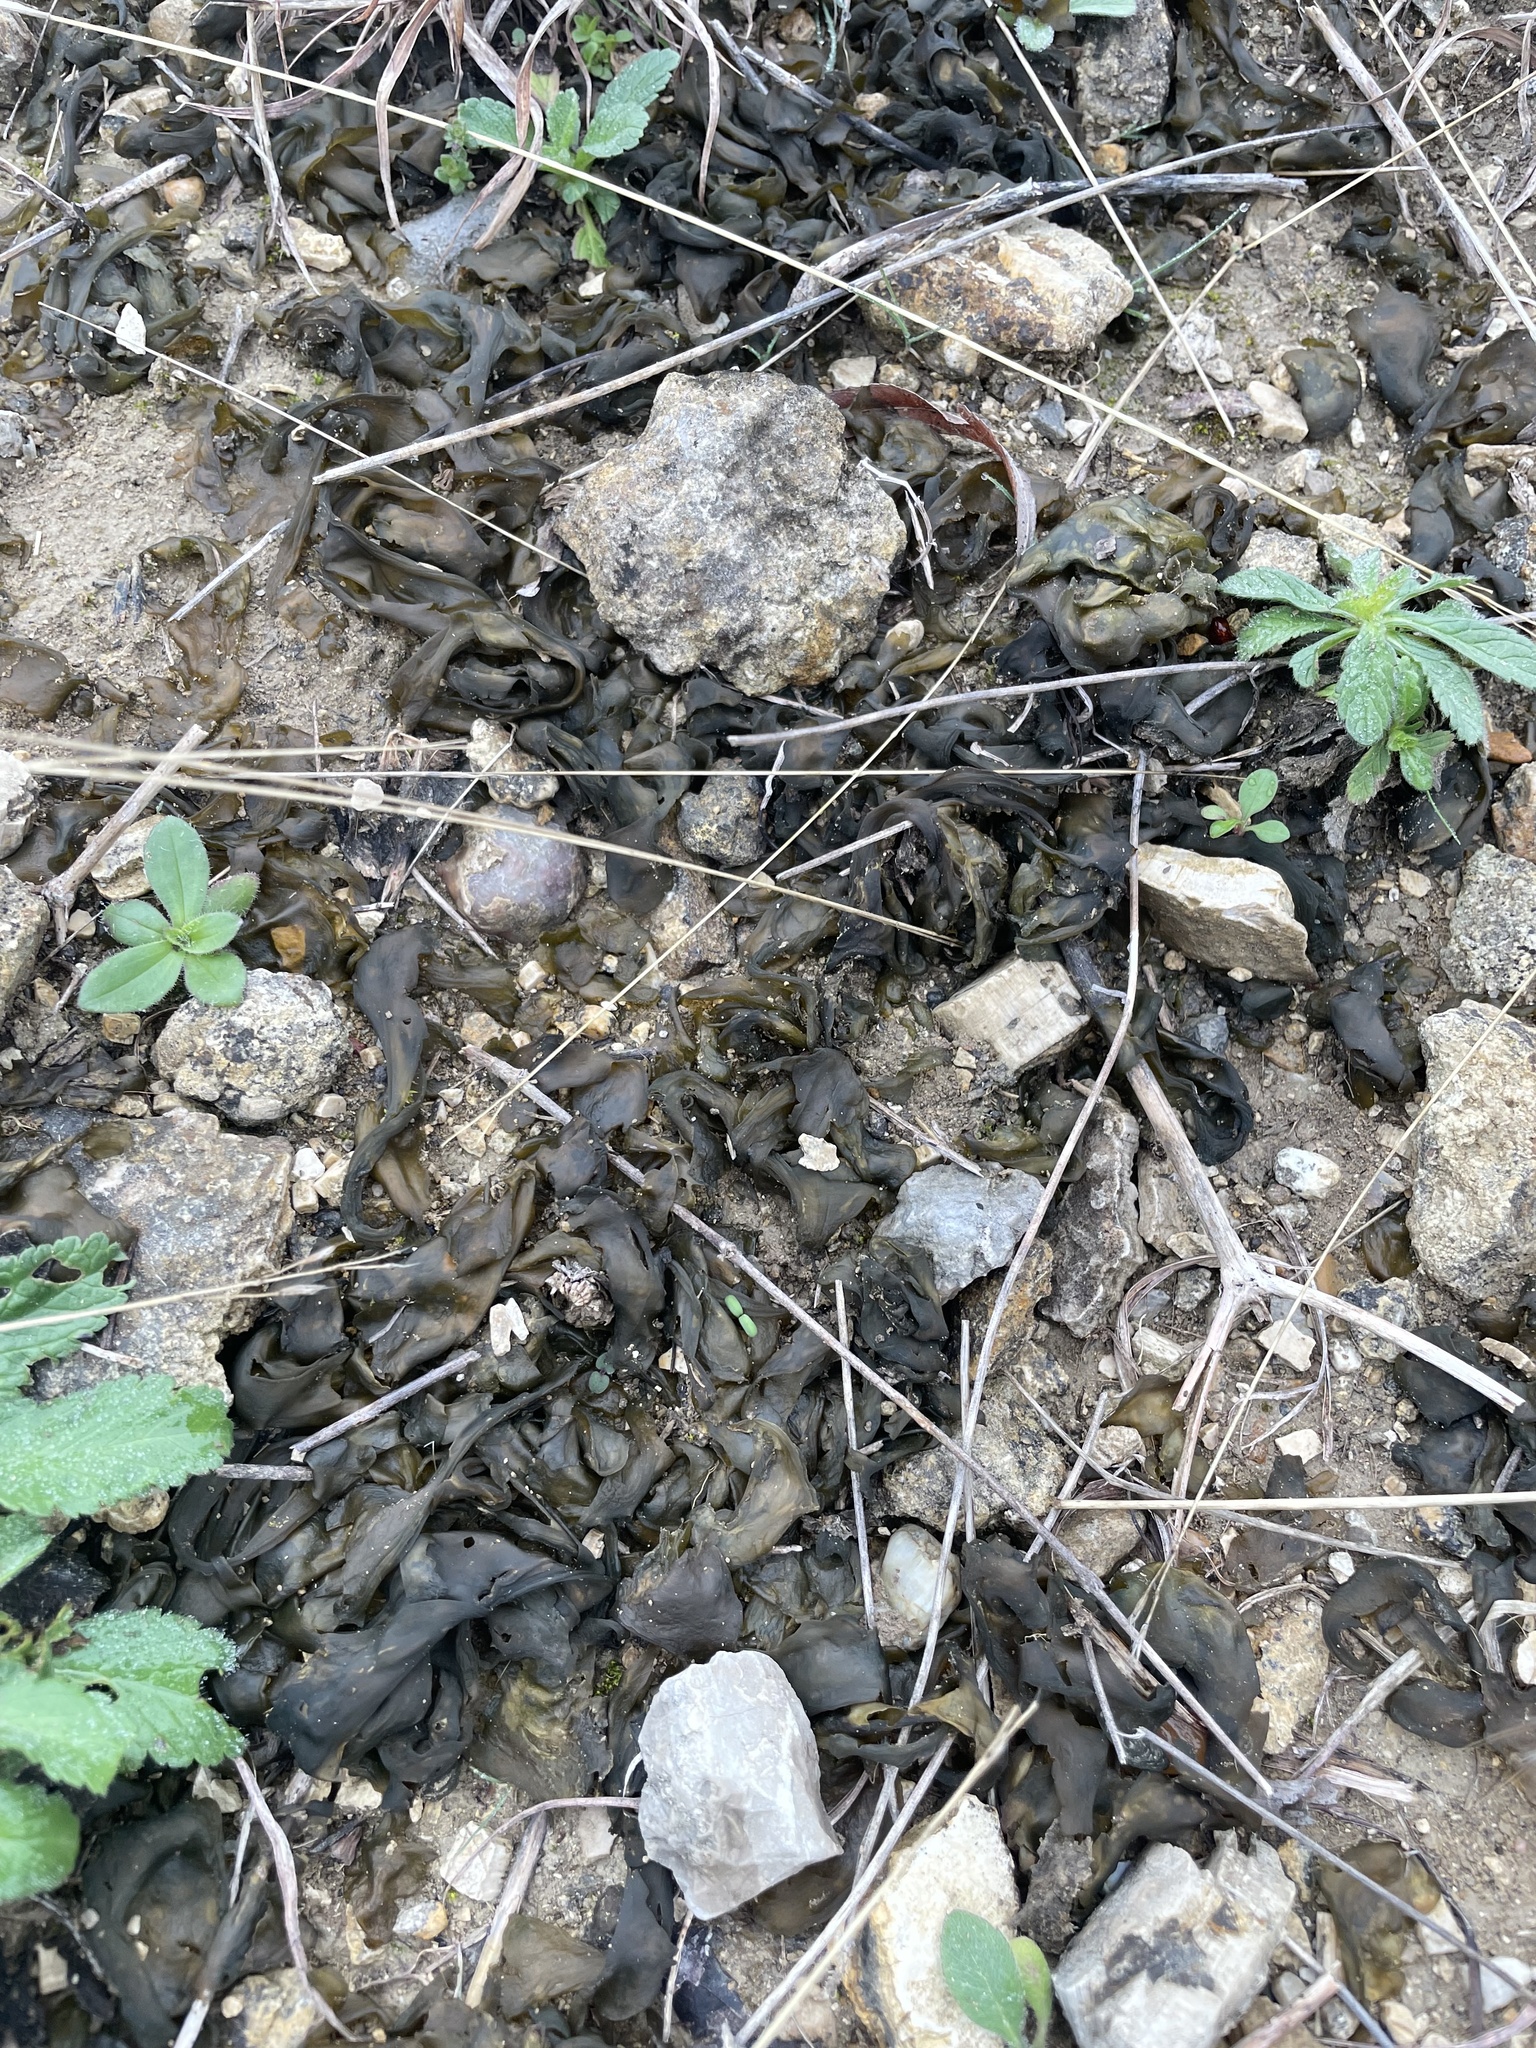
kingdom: Bacteria
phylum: Cyanobacteria
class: Cyanobacteriia
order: Cyanobacteriales
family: Nostocaceae
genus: Nostoc
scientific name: Nostoc commune
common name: Star jelly
